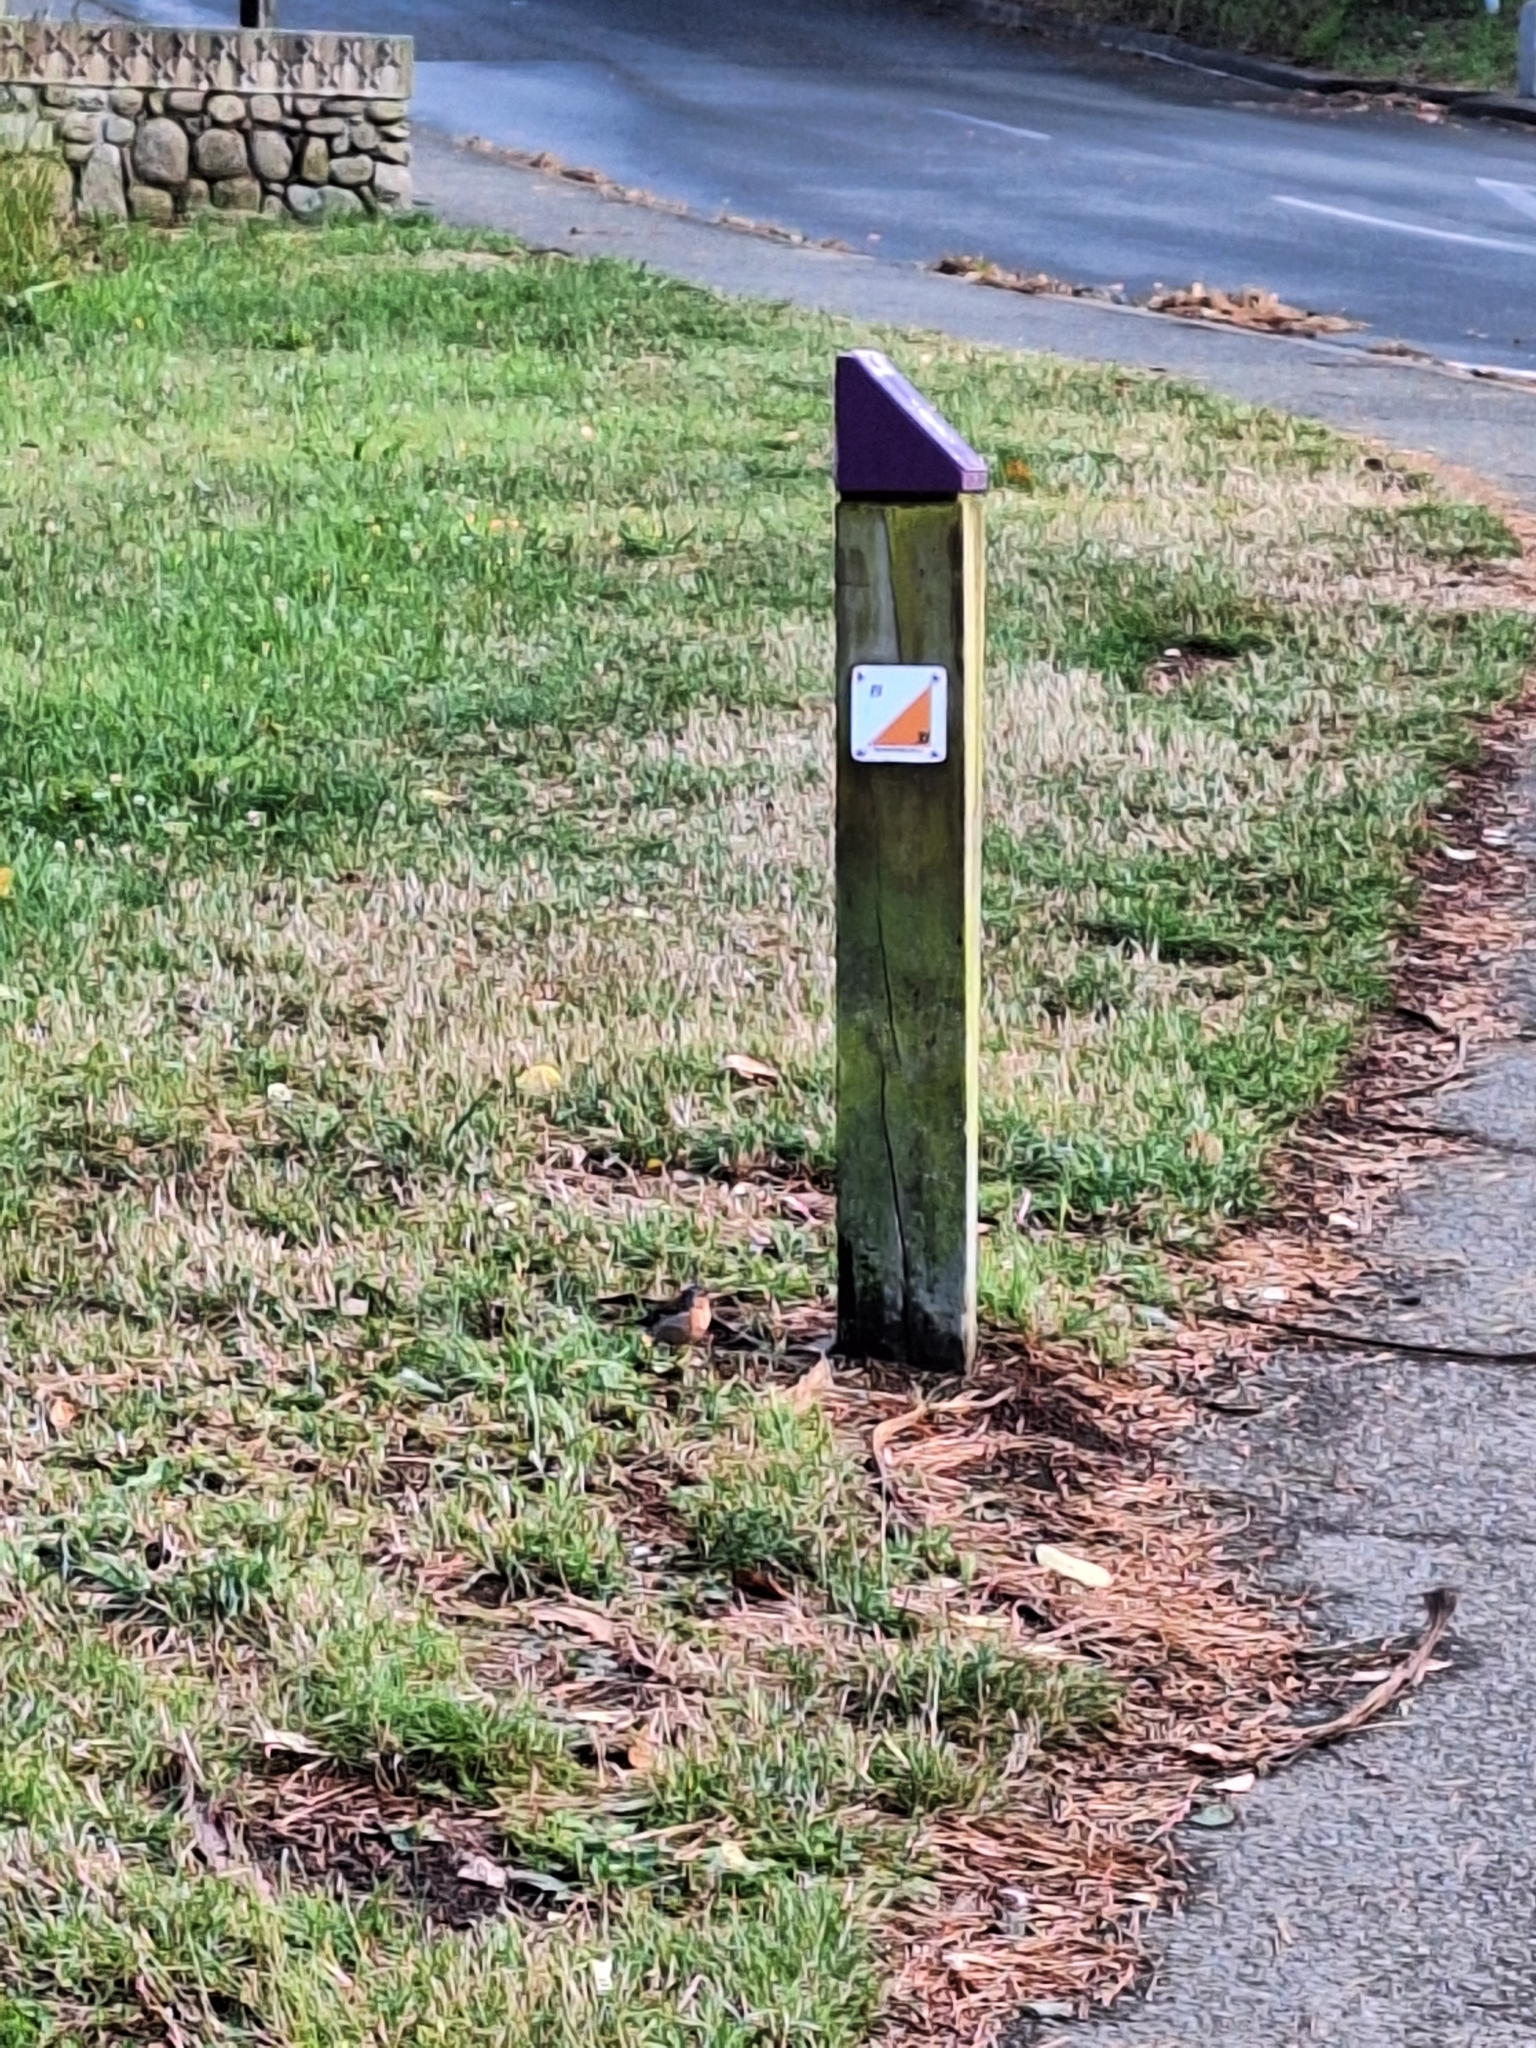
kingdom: Animalia
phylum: Chordata
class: Aves
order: Passeriformes
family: Fringillidae
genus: Fringilla
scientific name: Fringilla coelebs
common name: Common chaffinch
